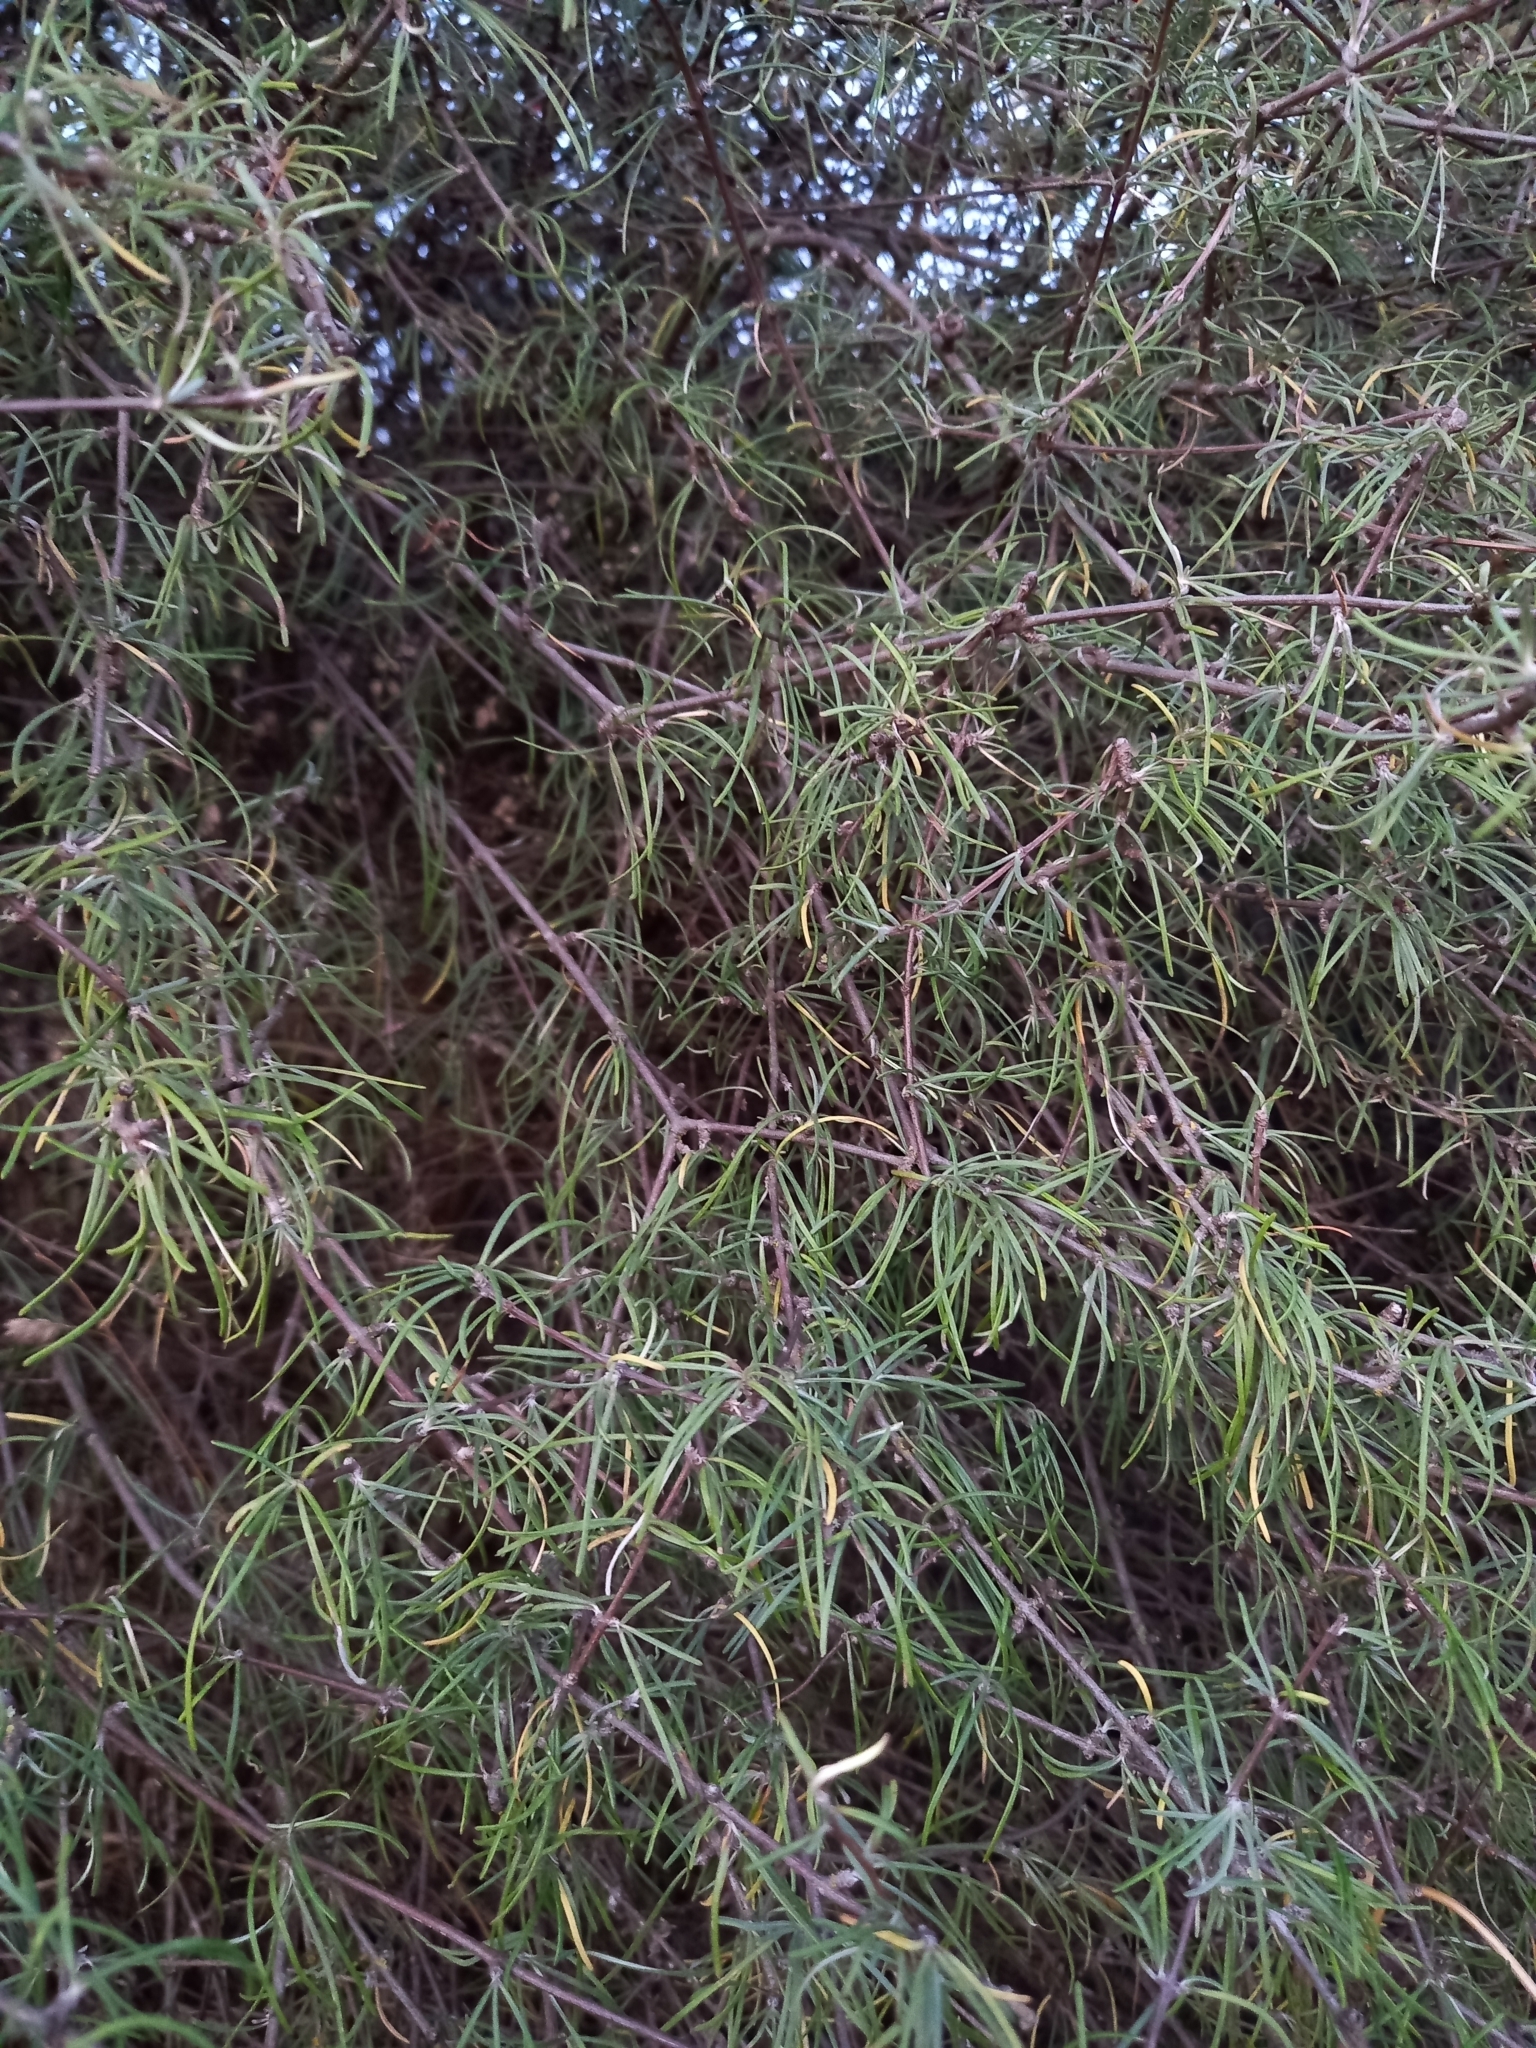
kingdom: Plantae
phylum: Tracheophyta
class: Magnoliopsida
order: Asterales
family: Asteraceae
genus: Olearia
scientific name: Olearia lineata
